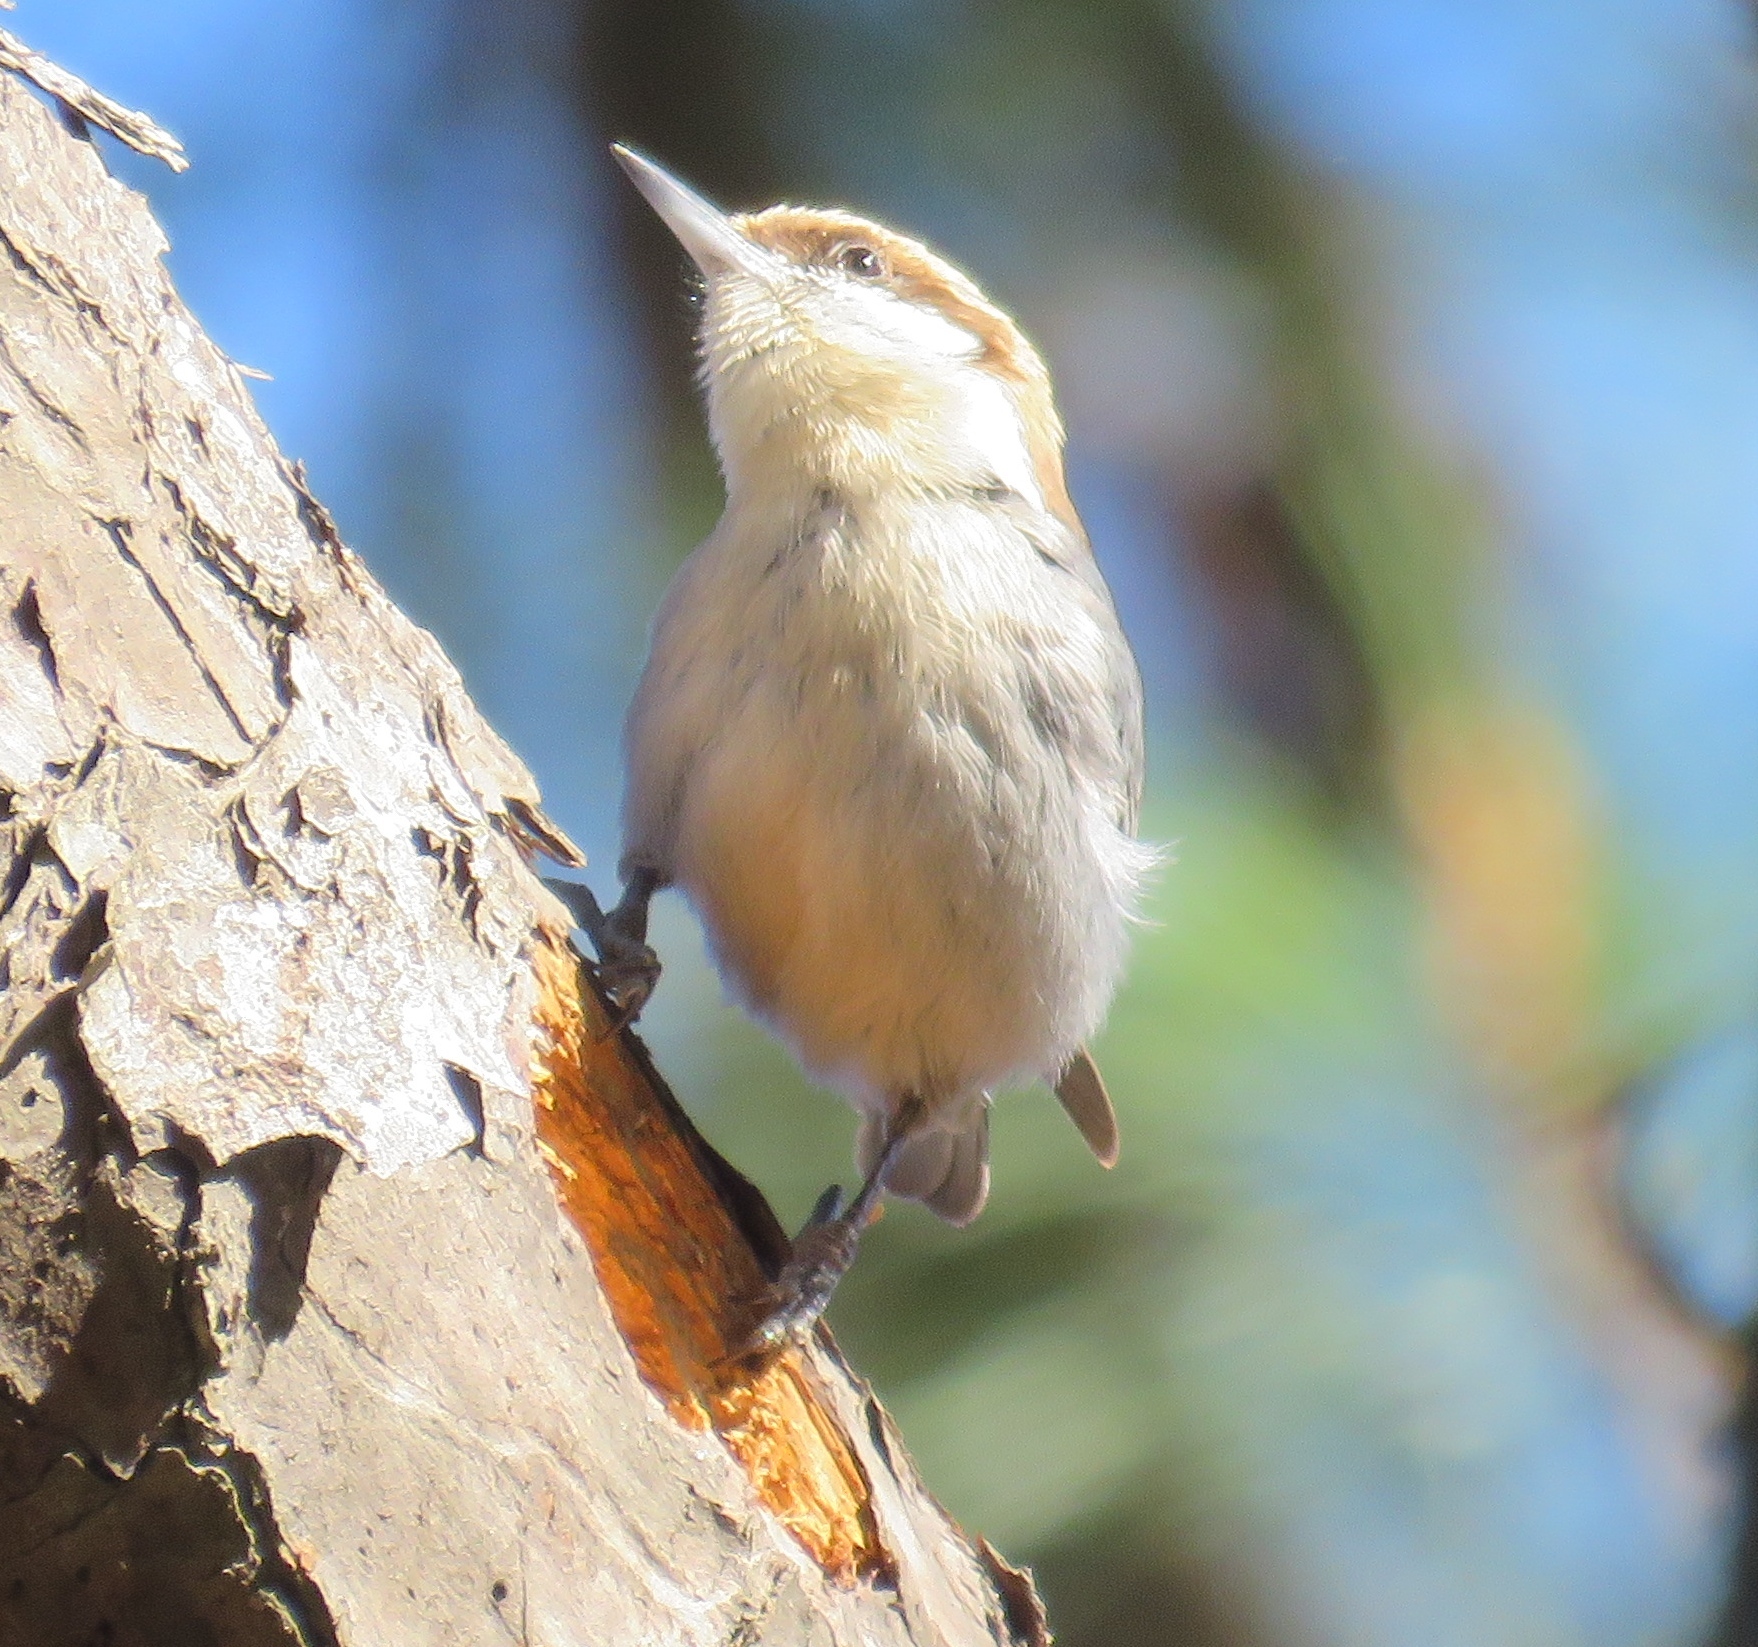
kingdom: Animalia
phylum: Chordata
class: Aves
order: Passeriformes
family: Sittidae
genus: Sitta
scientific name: Sitta pusilla
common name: Brown-headed nuthatch
